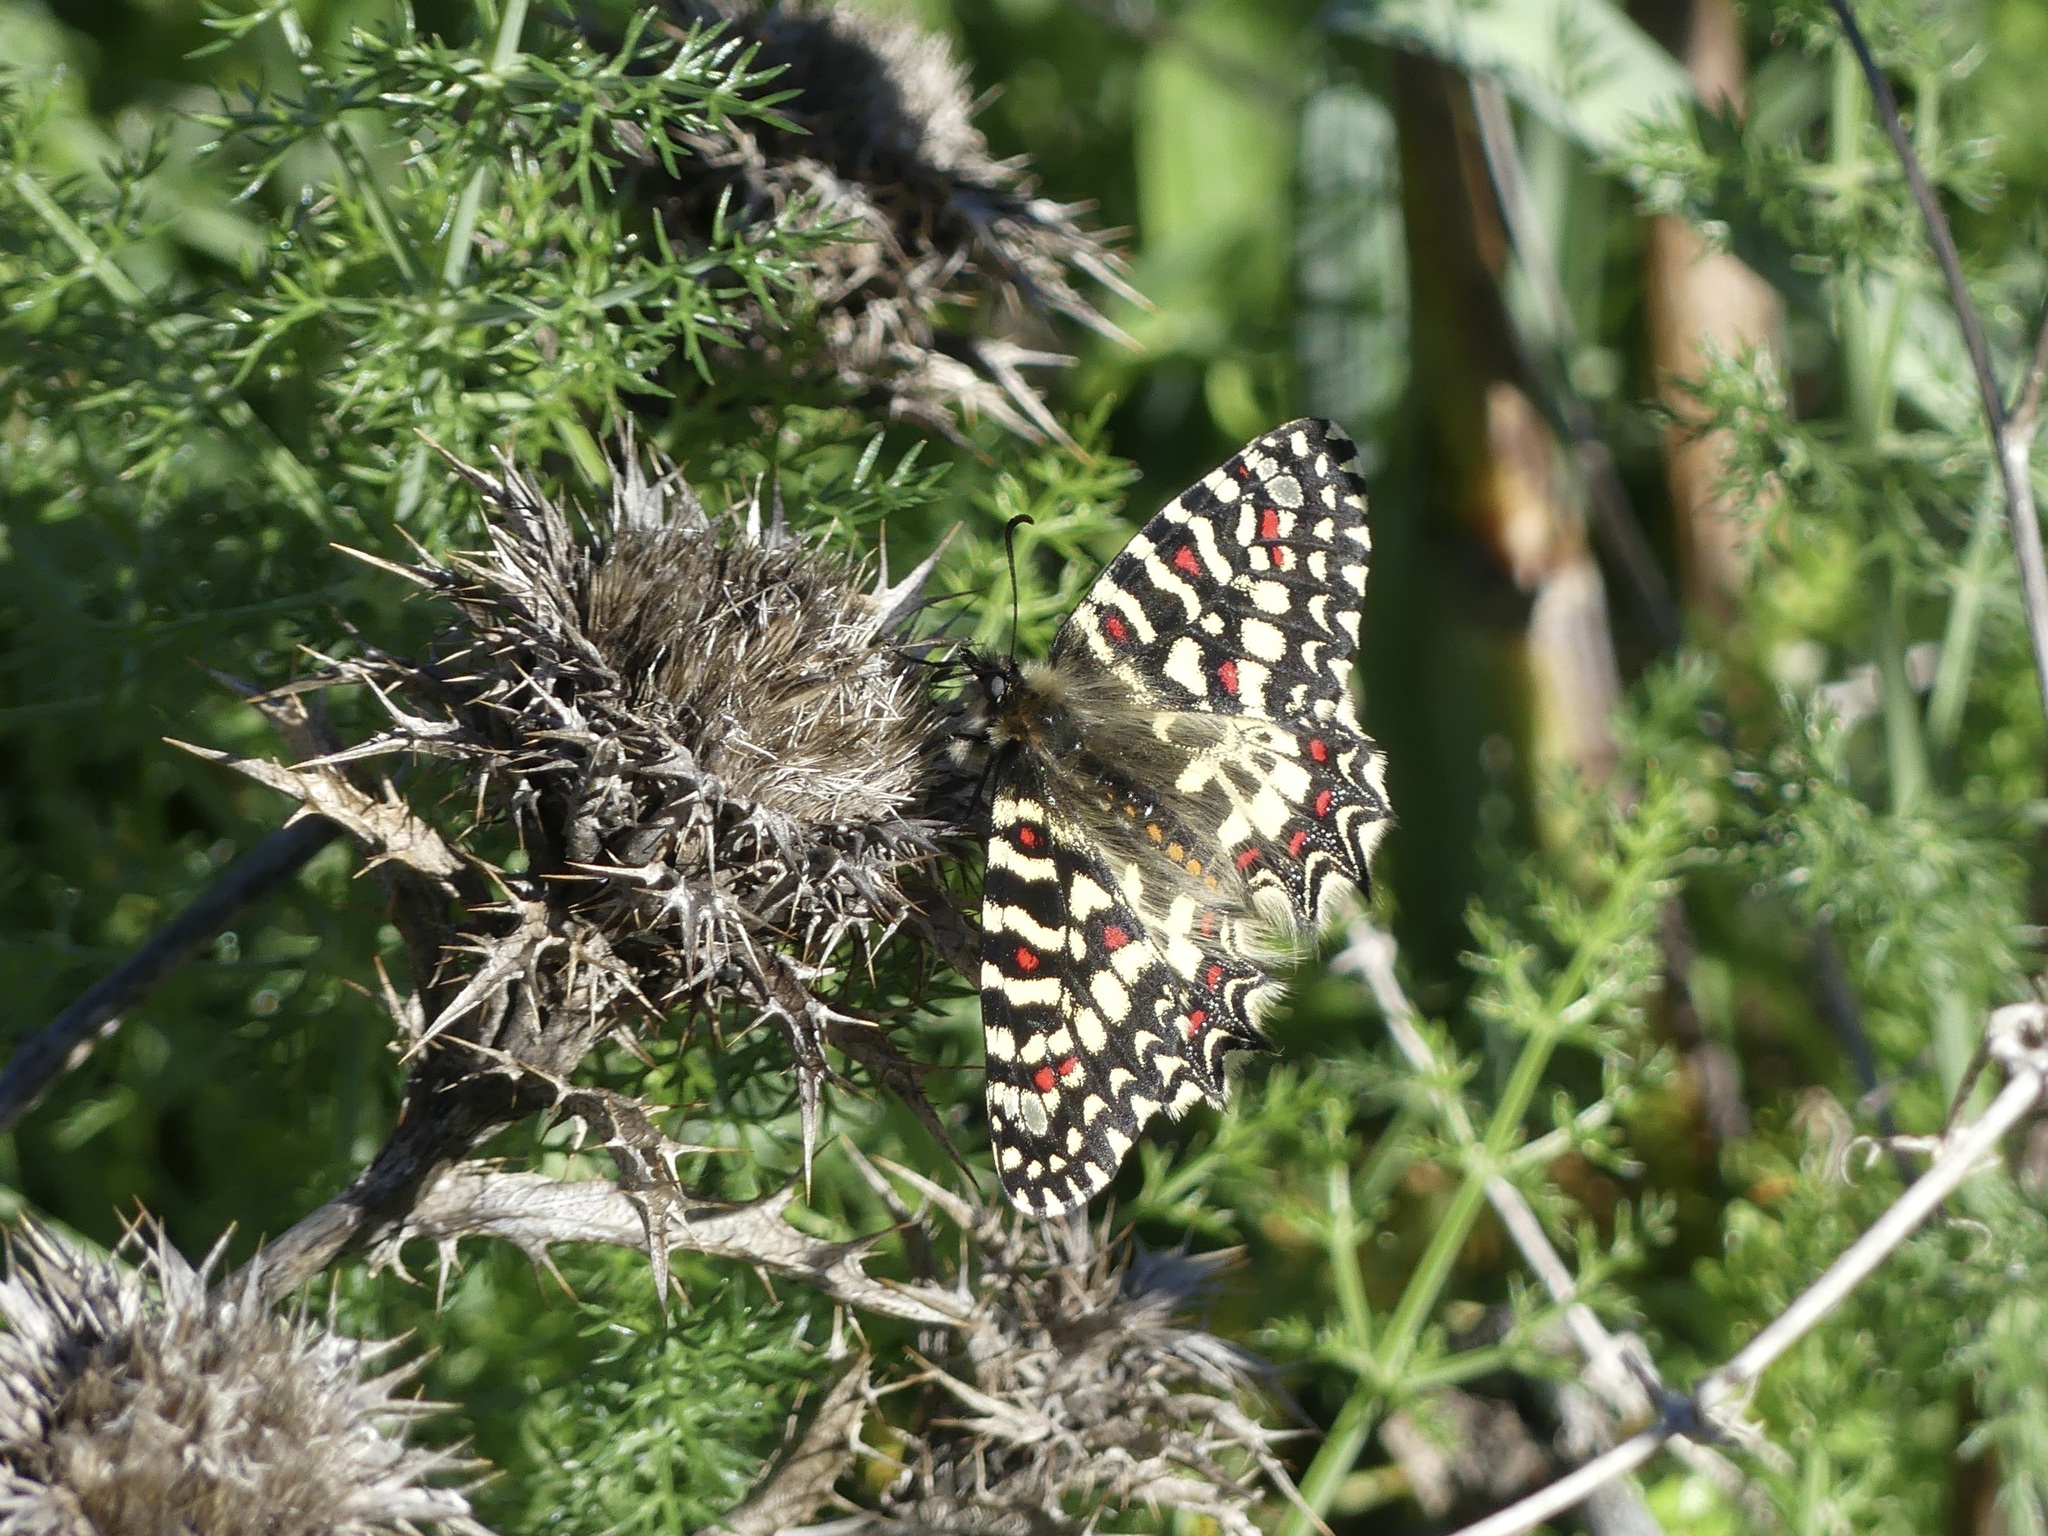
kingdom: Animalia
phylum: Arthropoda
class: Insecta
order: Lepidoptera
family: Papilionidae
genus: Zerynthia
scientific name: Zerynthia rumina
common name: Spanish festoon
